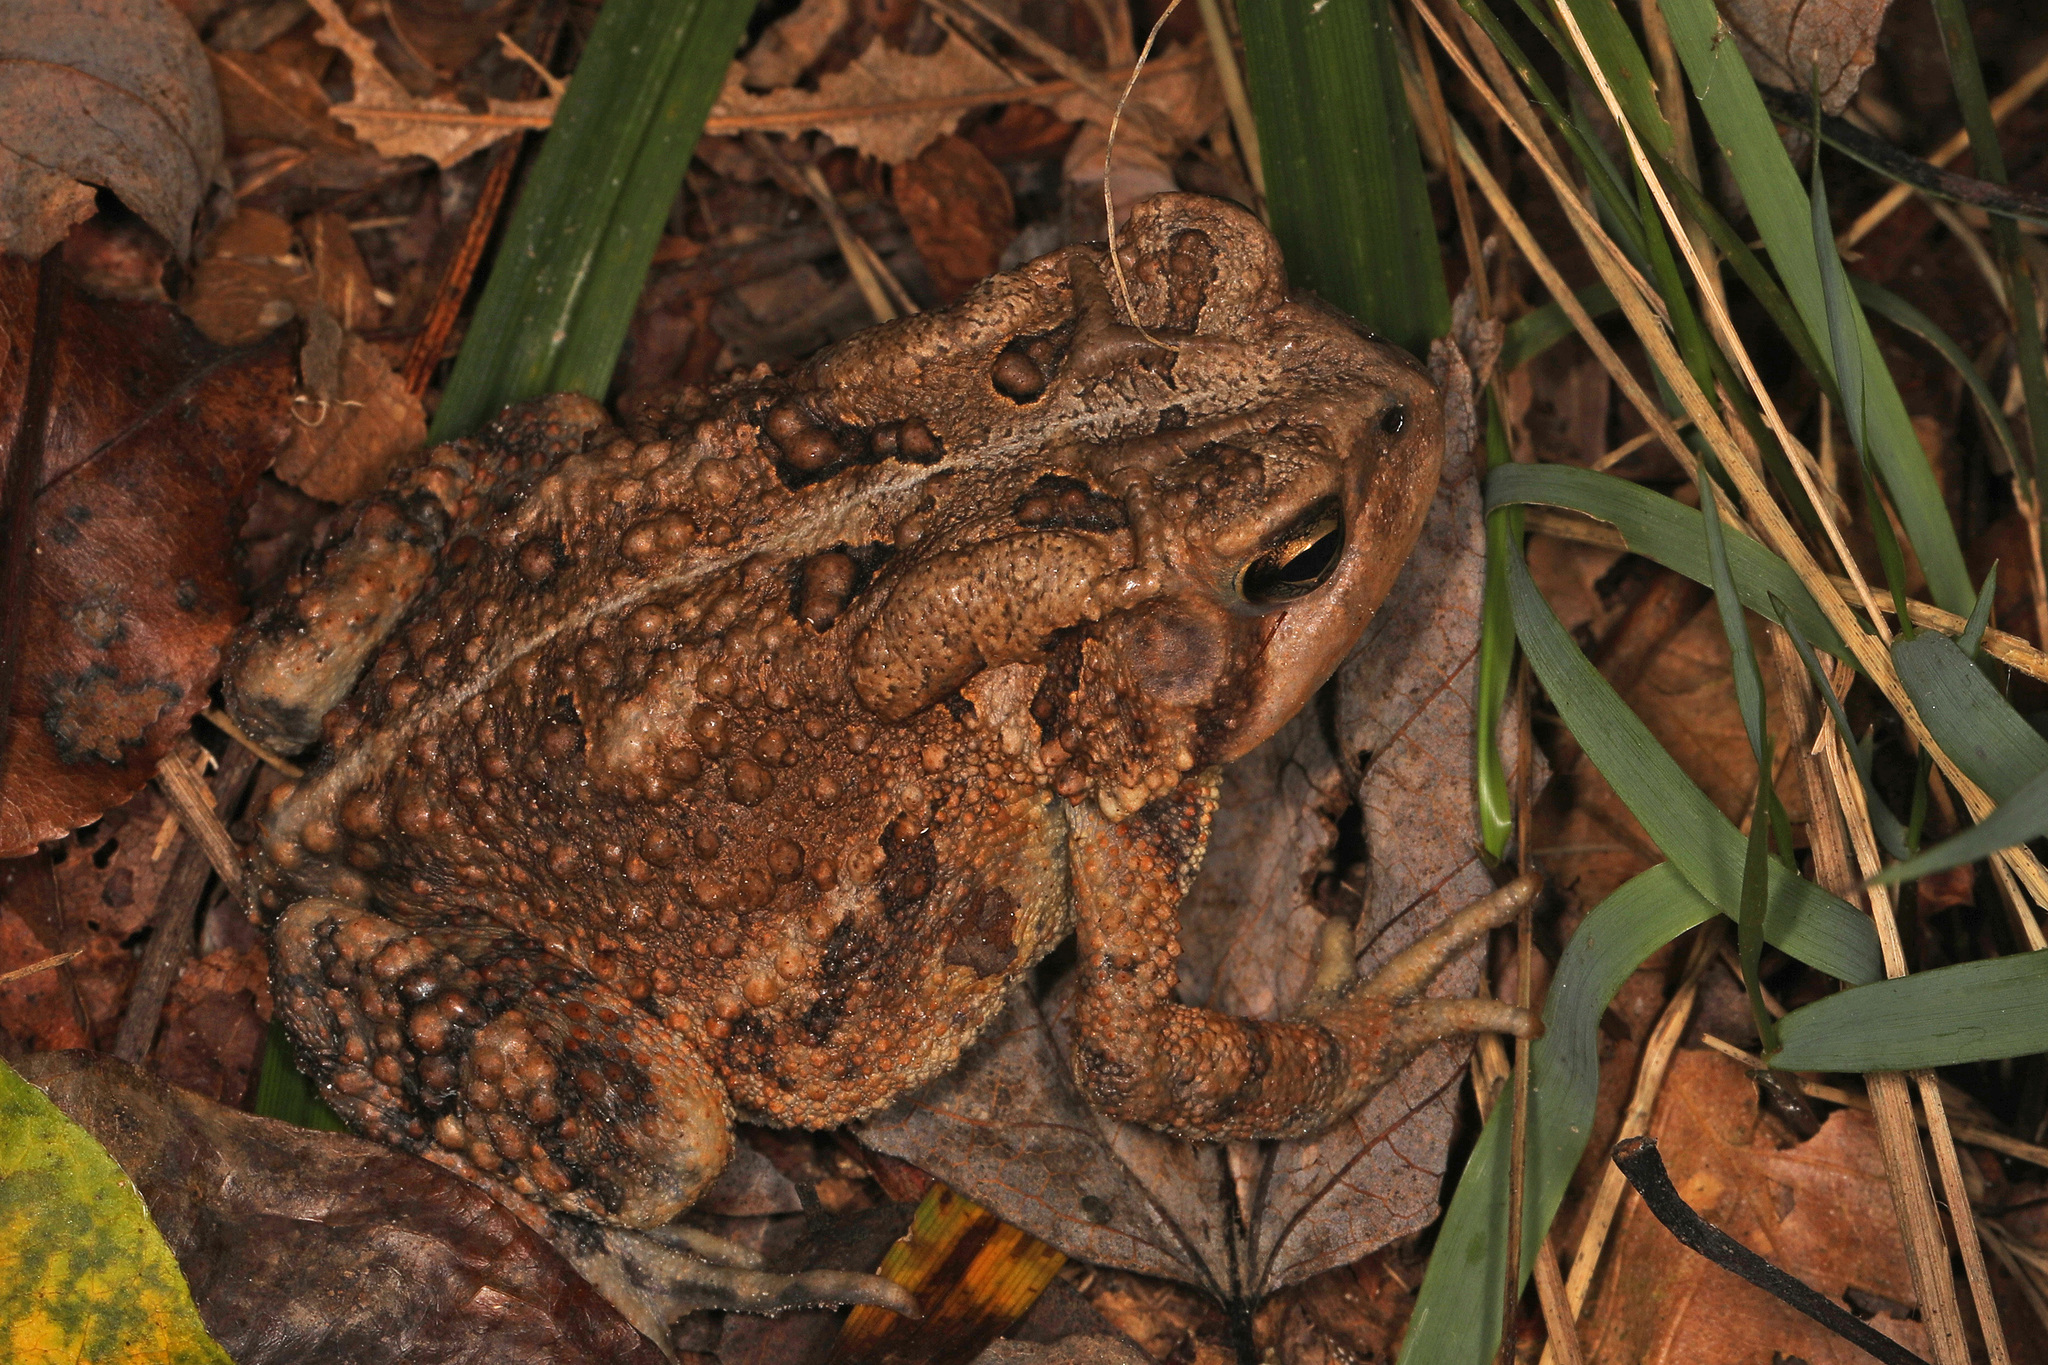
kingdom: Animalia
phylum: Chordata
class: Amphibia
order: Anura
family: Bufonidae
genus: Anaxyrus
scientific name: Anaxyrus americanus
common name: American toad
